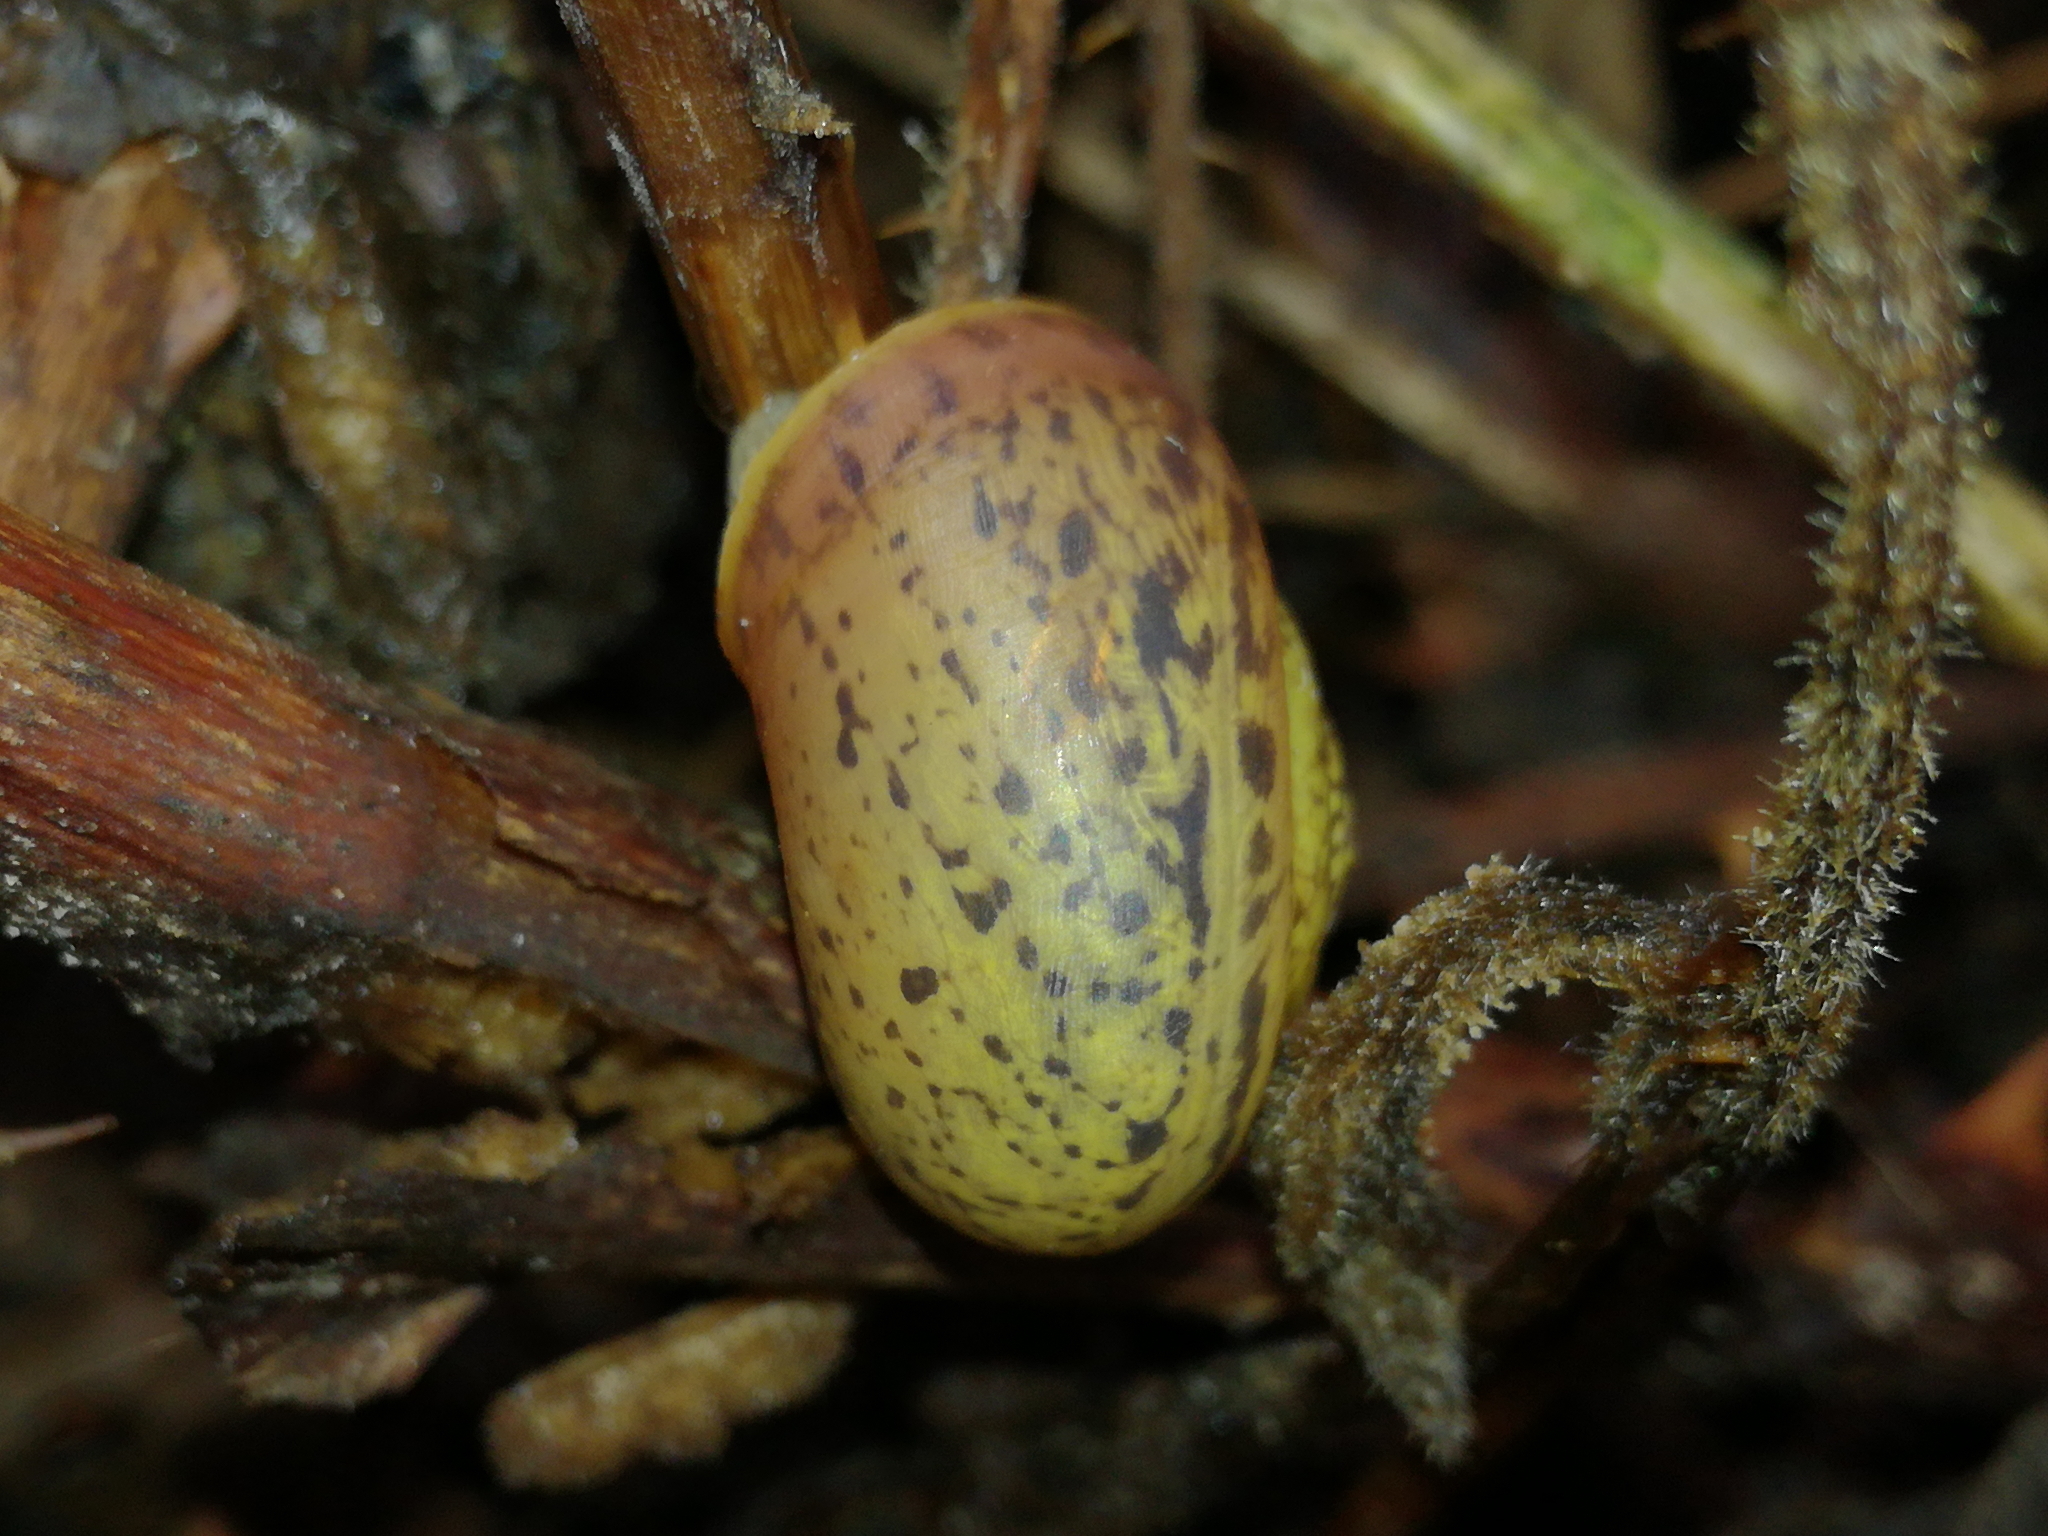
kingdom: Animalia
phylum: Mollusca
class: Gastropoda
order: Stylommatophora
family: Camaenidae
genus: Fruticicola
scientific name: Fruticicola fruticum
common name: Bush snail
